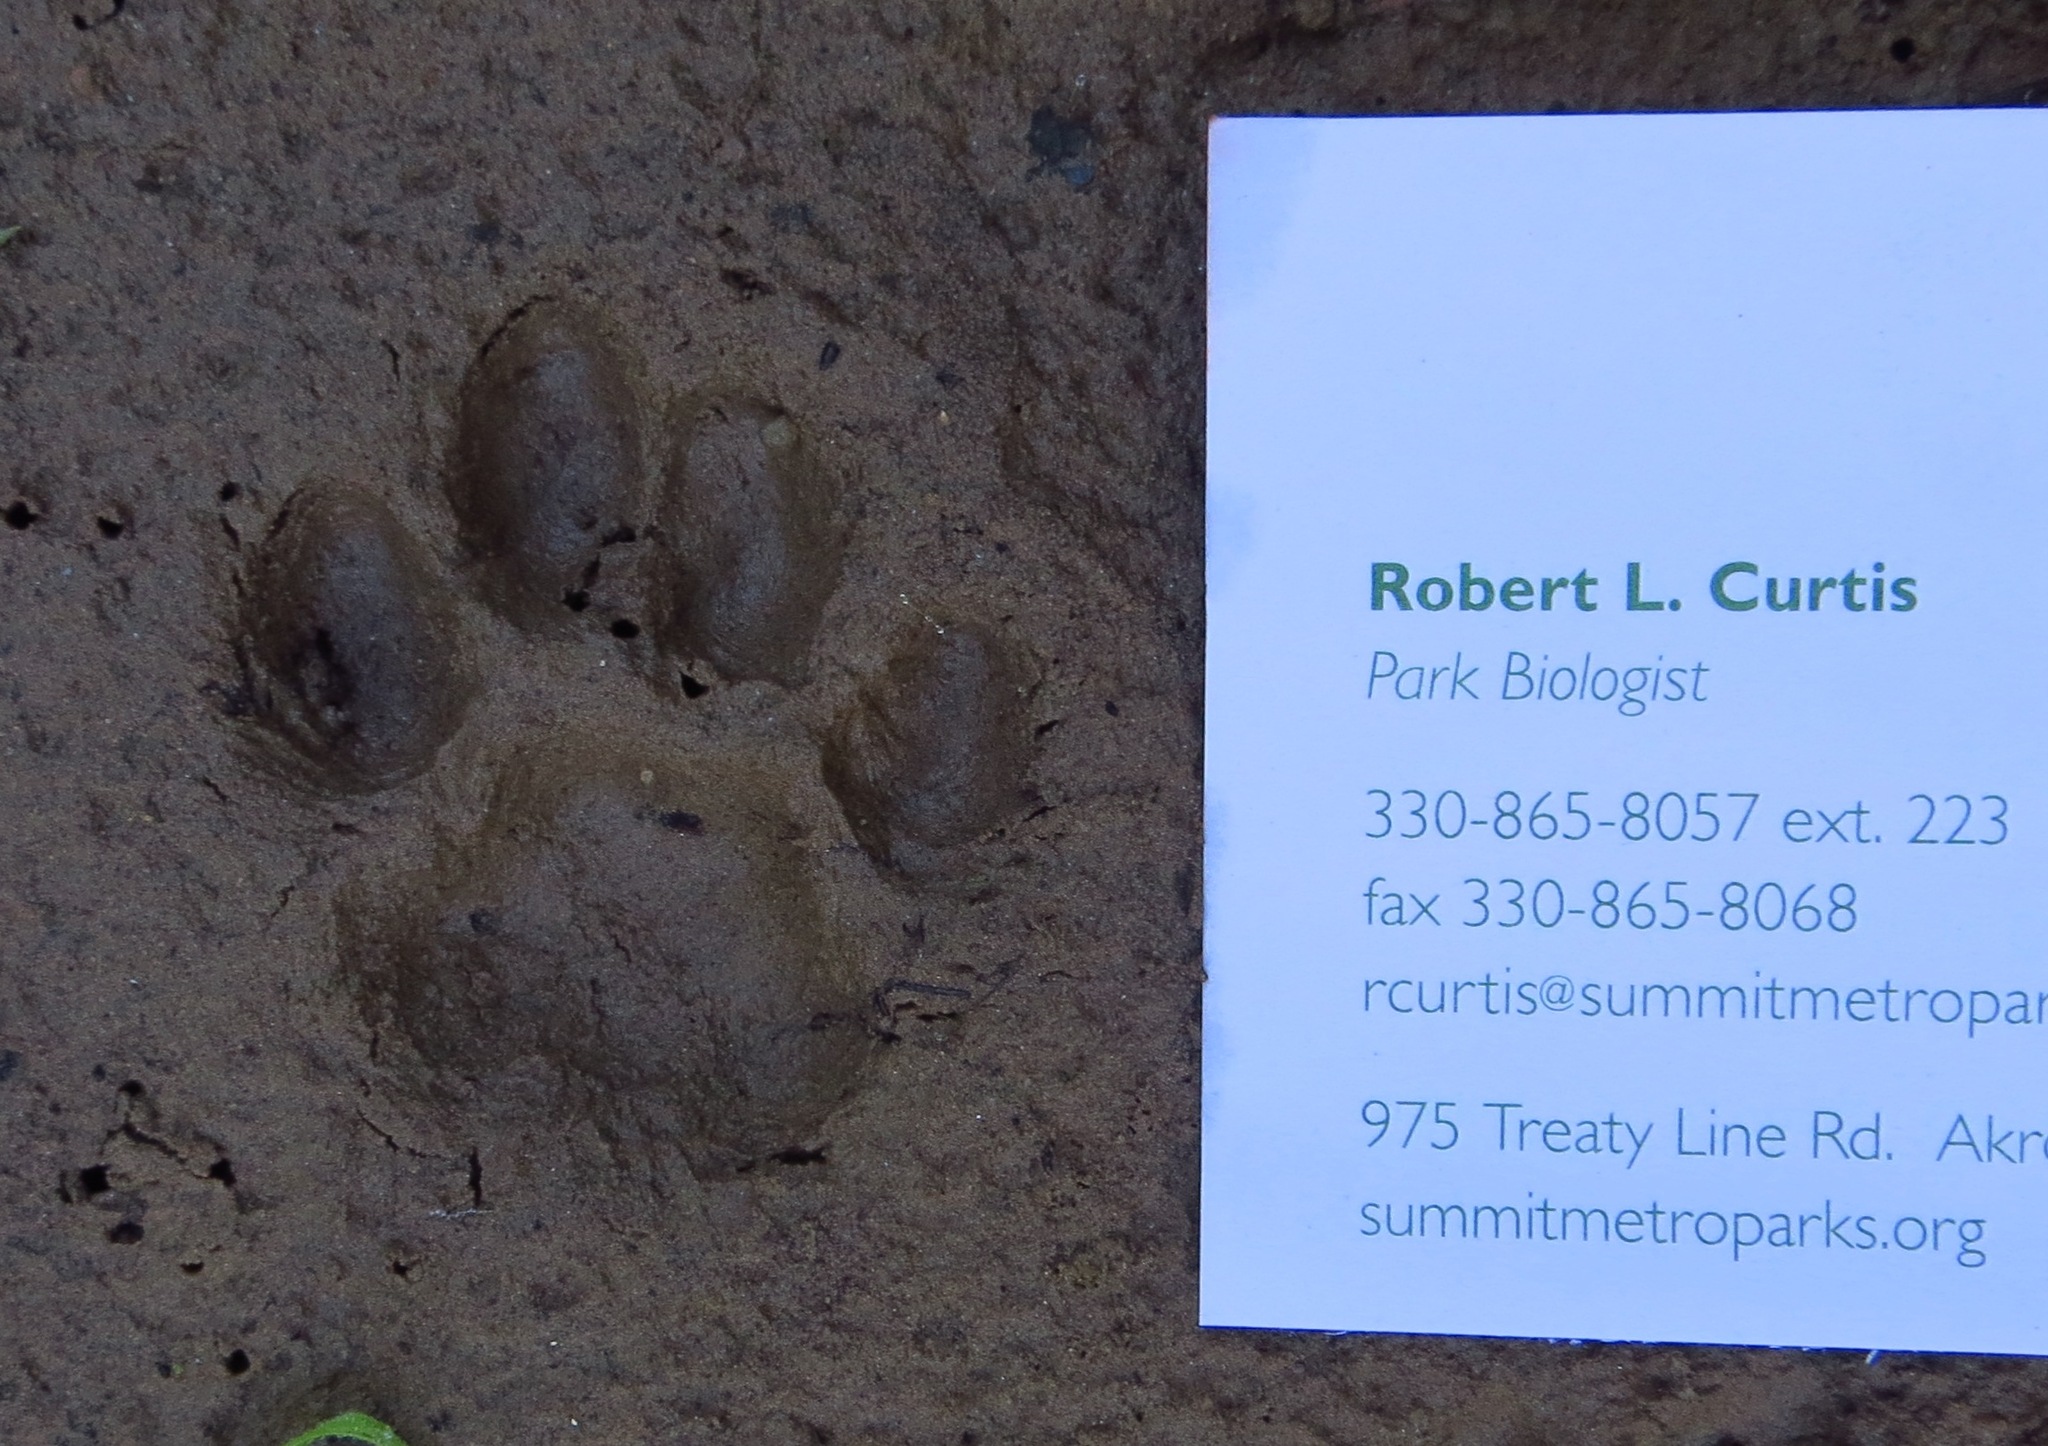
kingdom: Animalia
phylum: Chordata
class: Mammalia
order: Carnivora
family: Felidae
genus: Felis
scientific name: Felis catus
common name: Domestic cat
